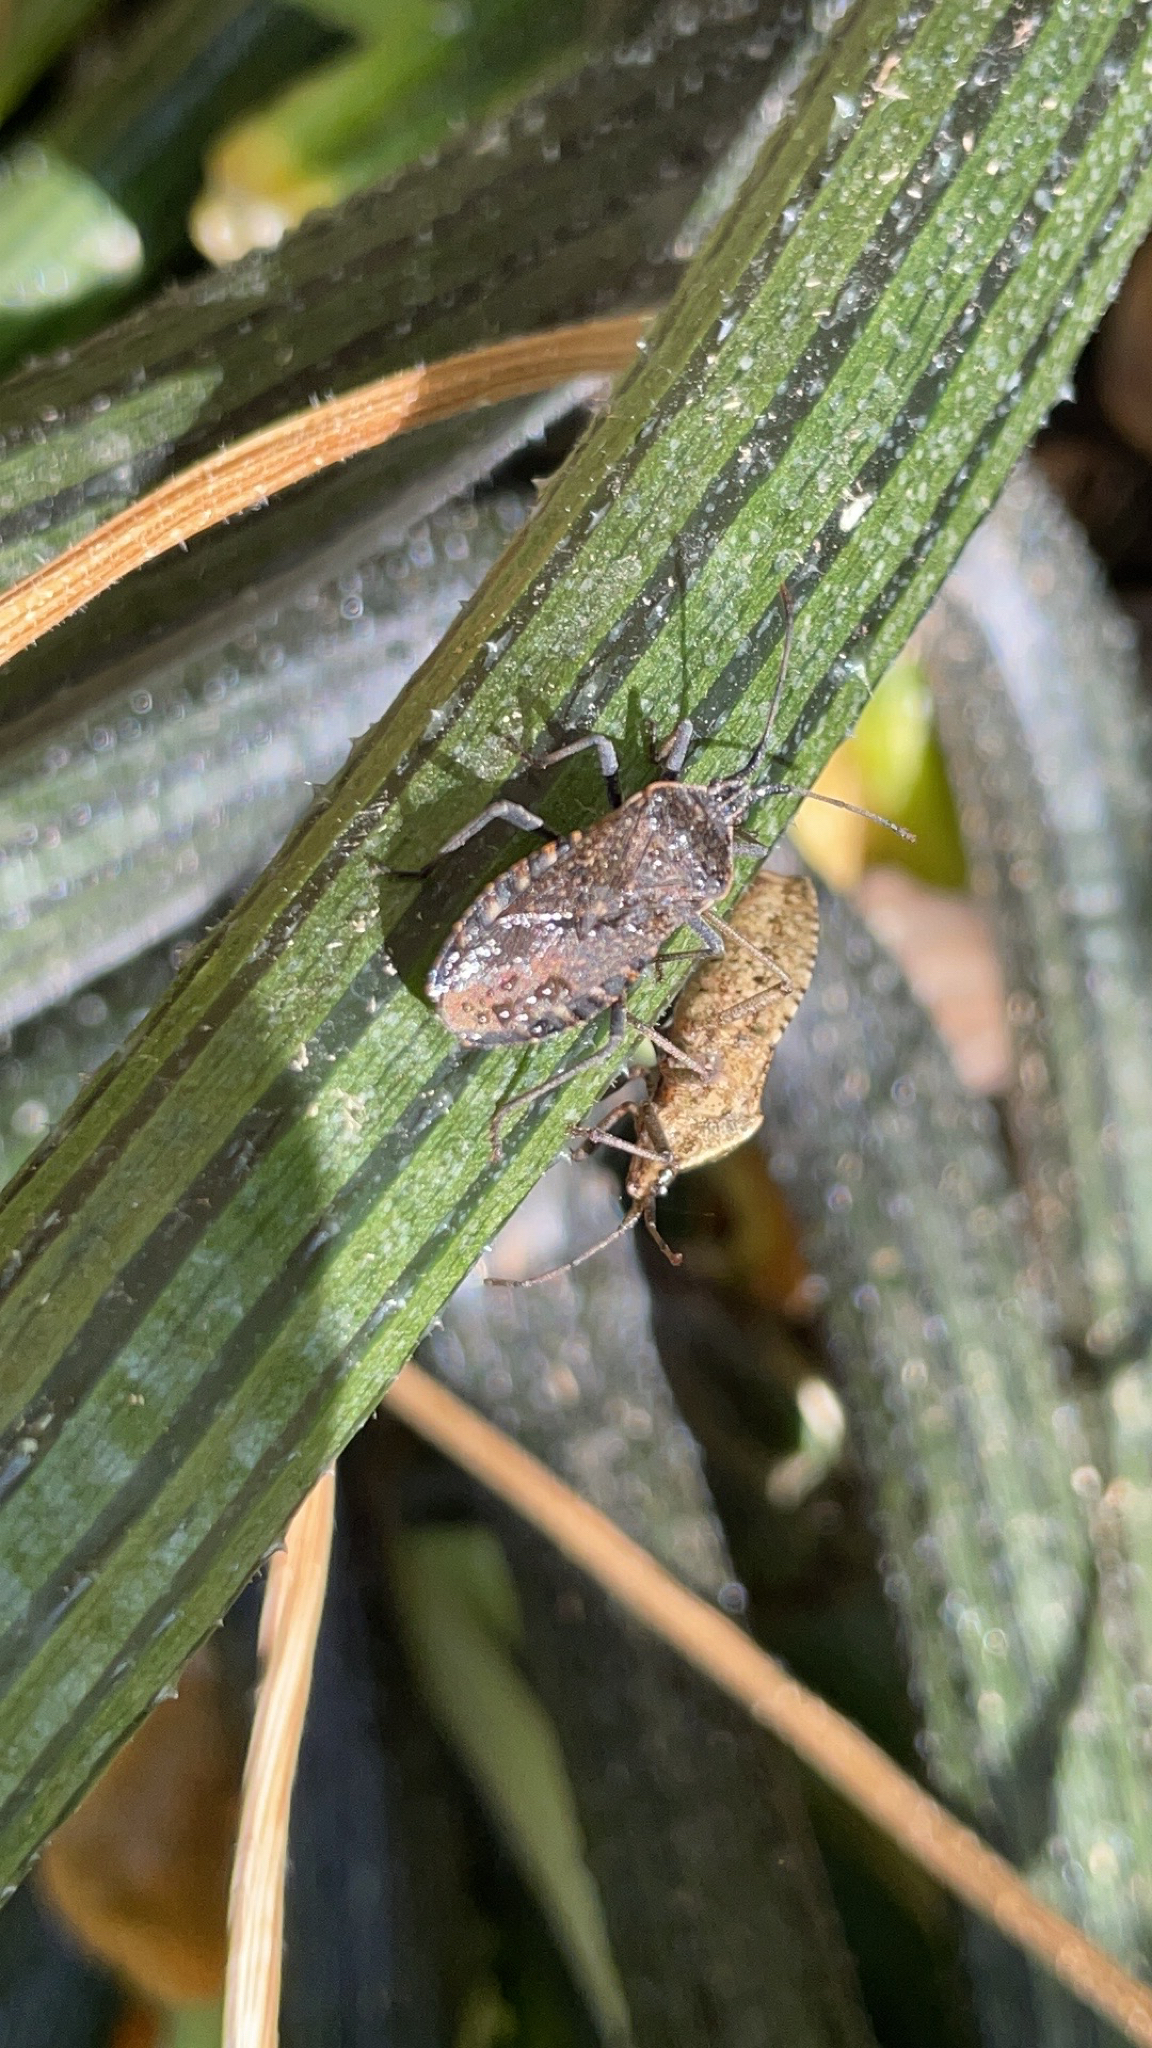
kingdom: Animalia
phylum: Arthropoda
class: Insecta
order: Hemiptera
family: Coreidae
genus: Anasa
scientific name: Anasa tristis
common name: Squash bug
